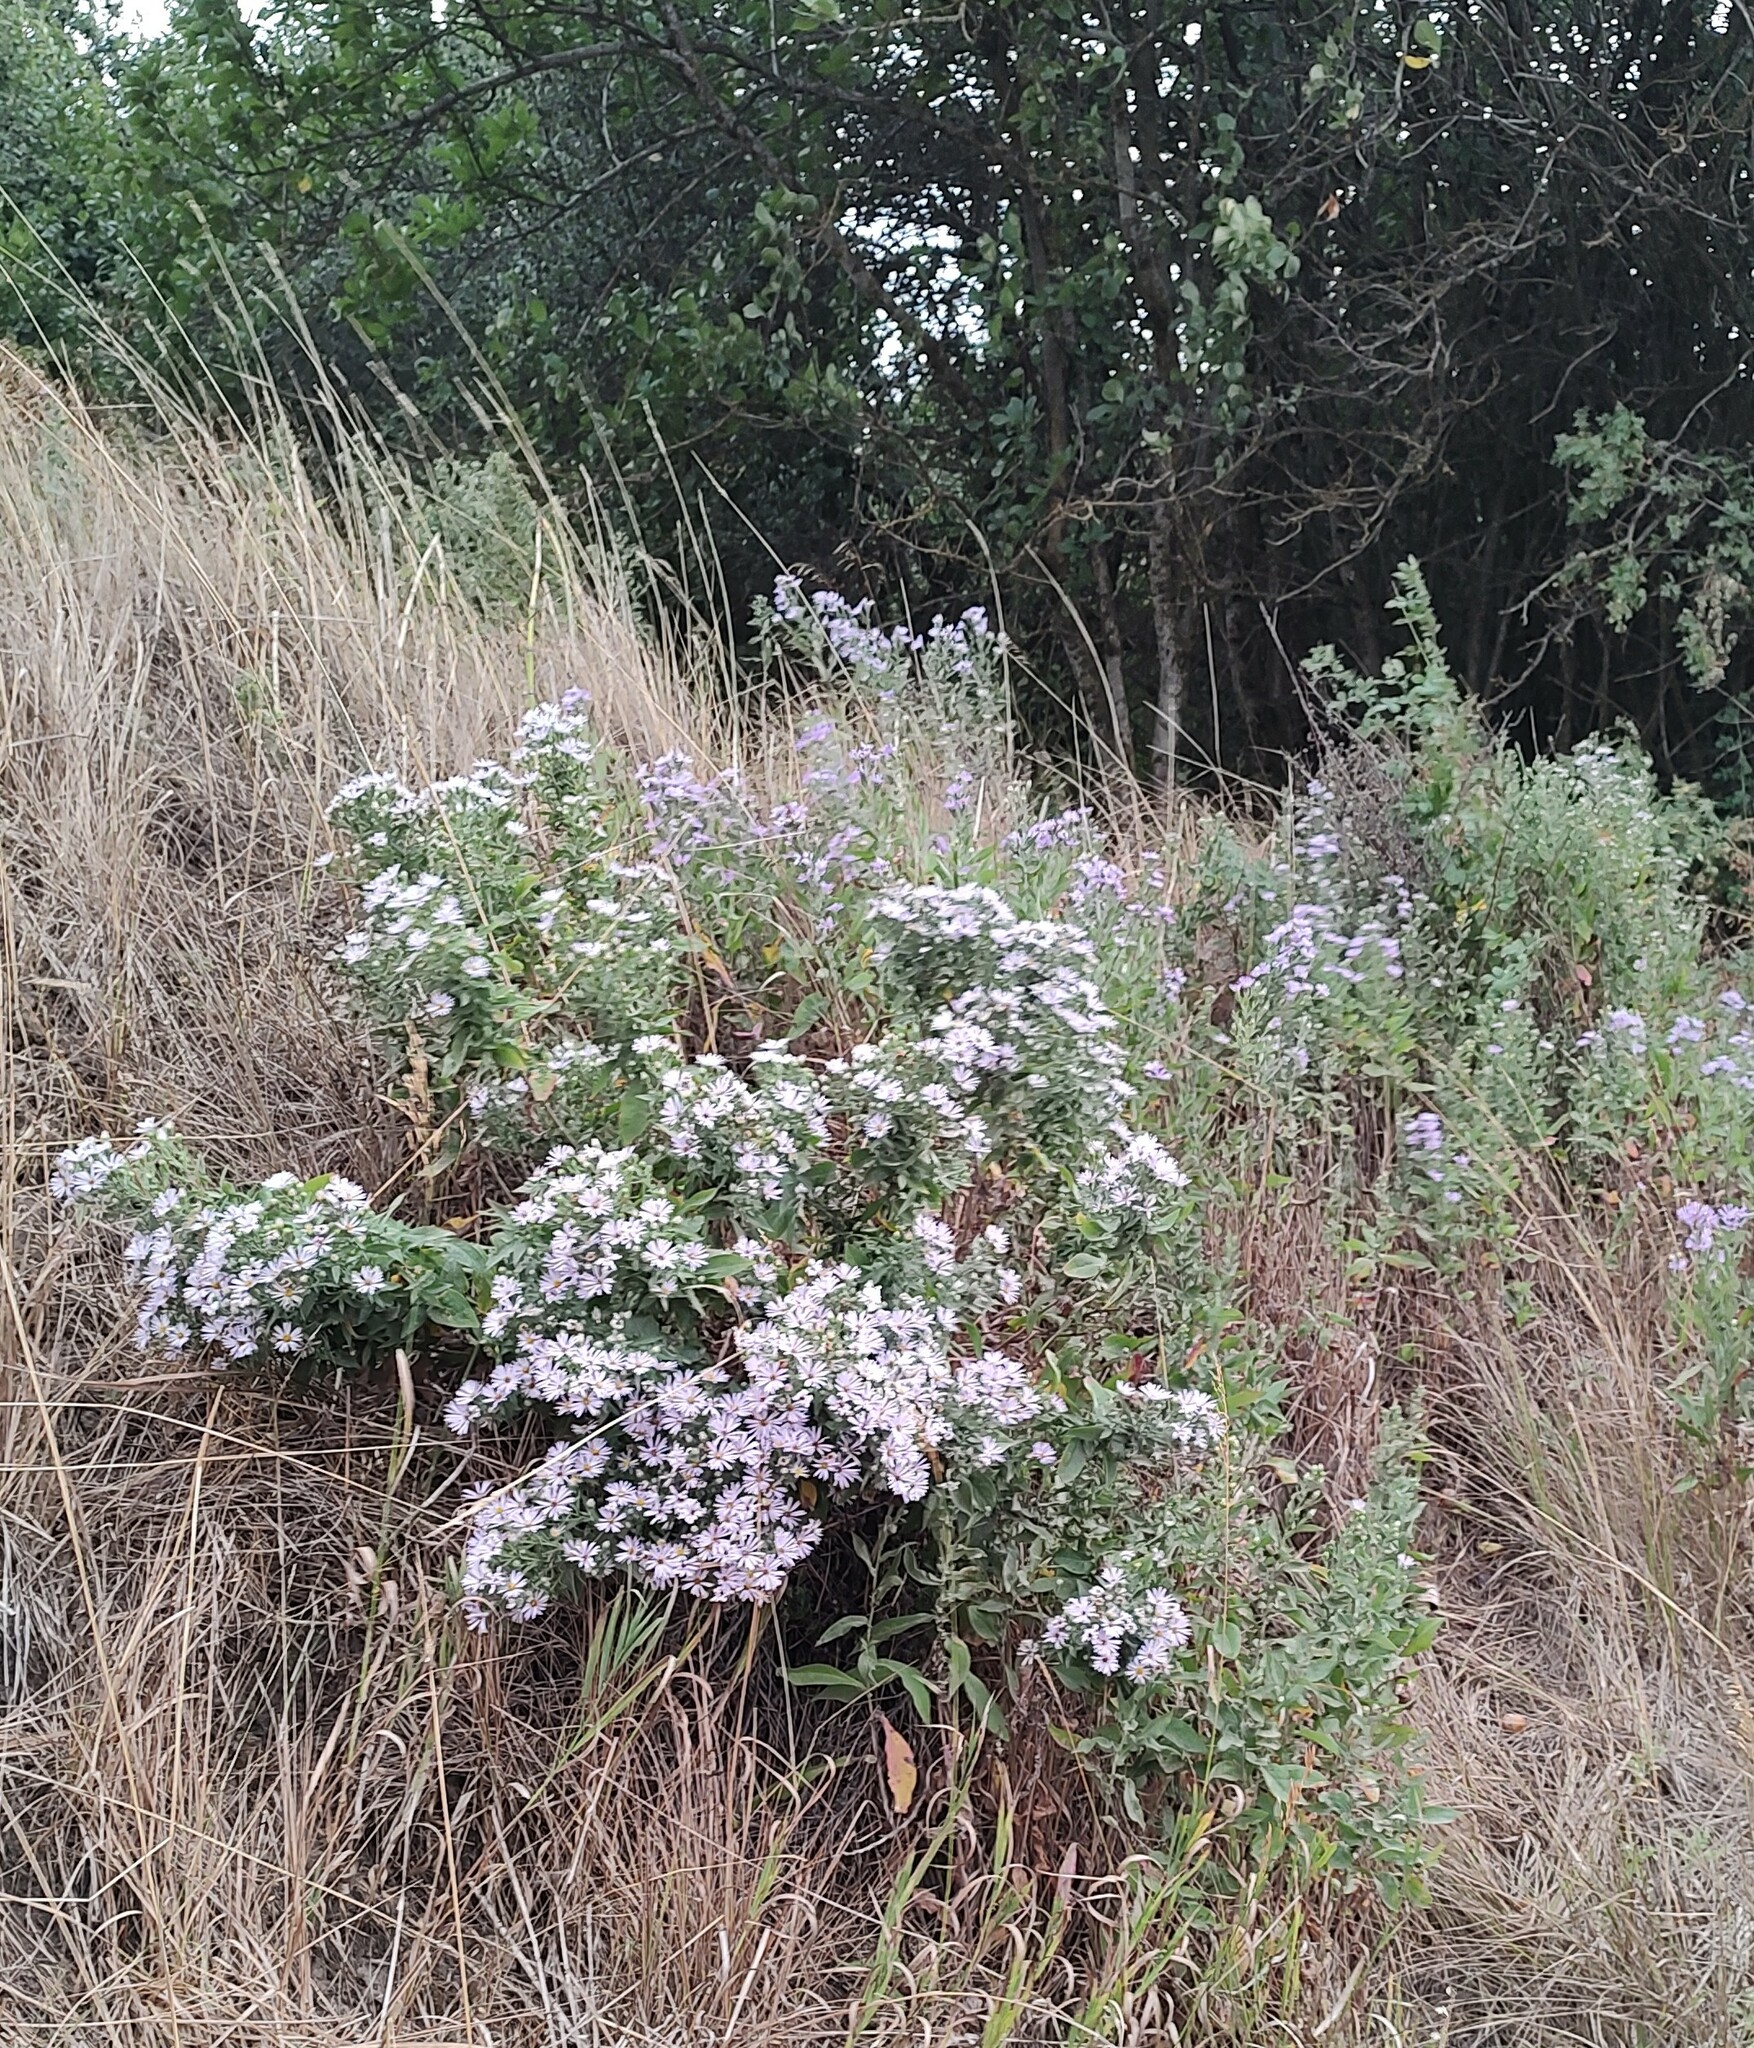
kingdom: Plantae
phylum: Tracheophyta
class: Magnoliopsida
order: Asterales
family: Asteraceae
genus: Symphyotrichum
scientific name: Symphyotrichum jessicae
